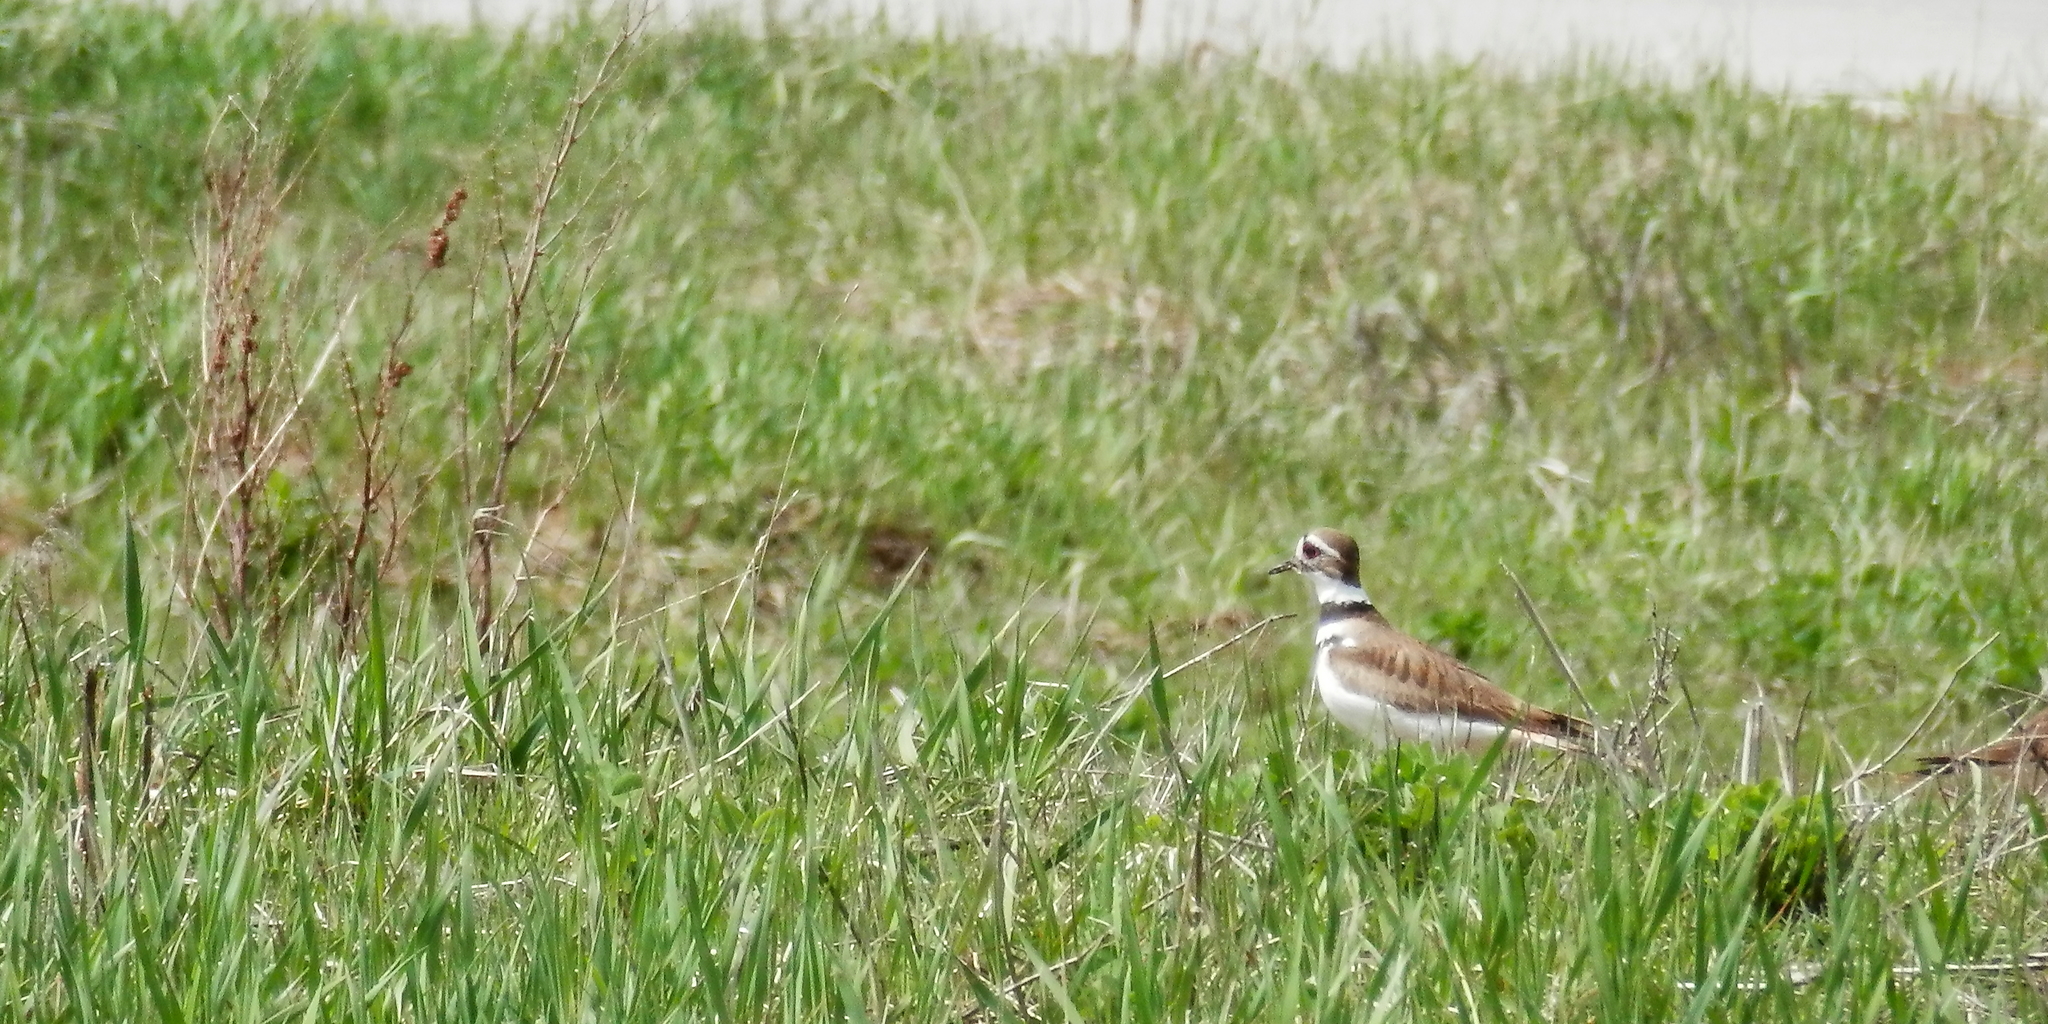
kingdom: Animalia
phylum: Chordata
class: Aves
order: Charadriiformes
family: Charadriidae
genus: Charadrius
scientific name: Charadrius vociferus
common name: Killdeer
